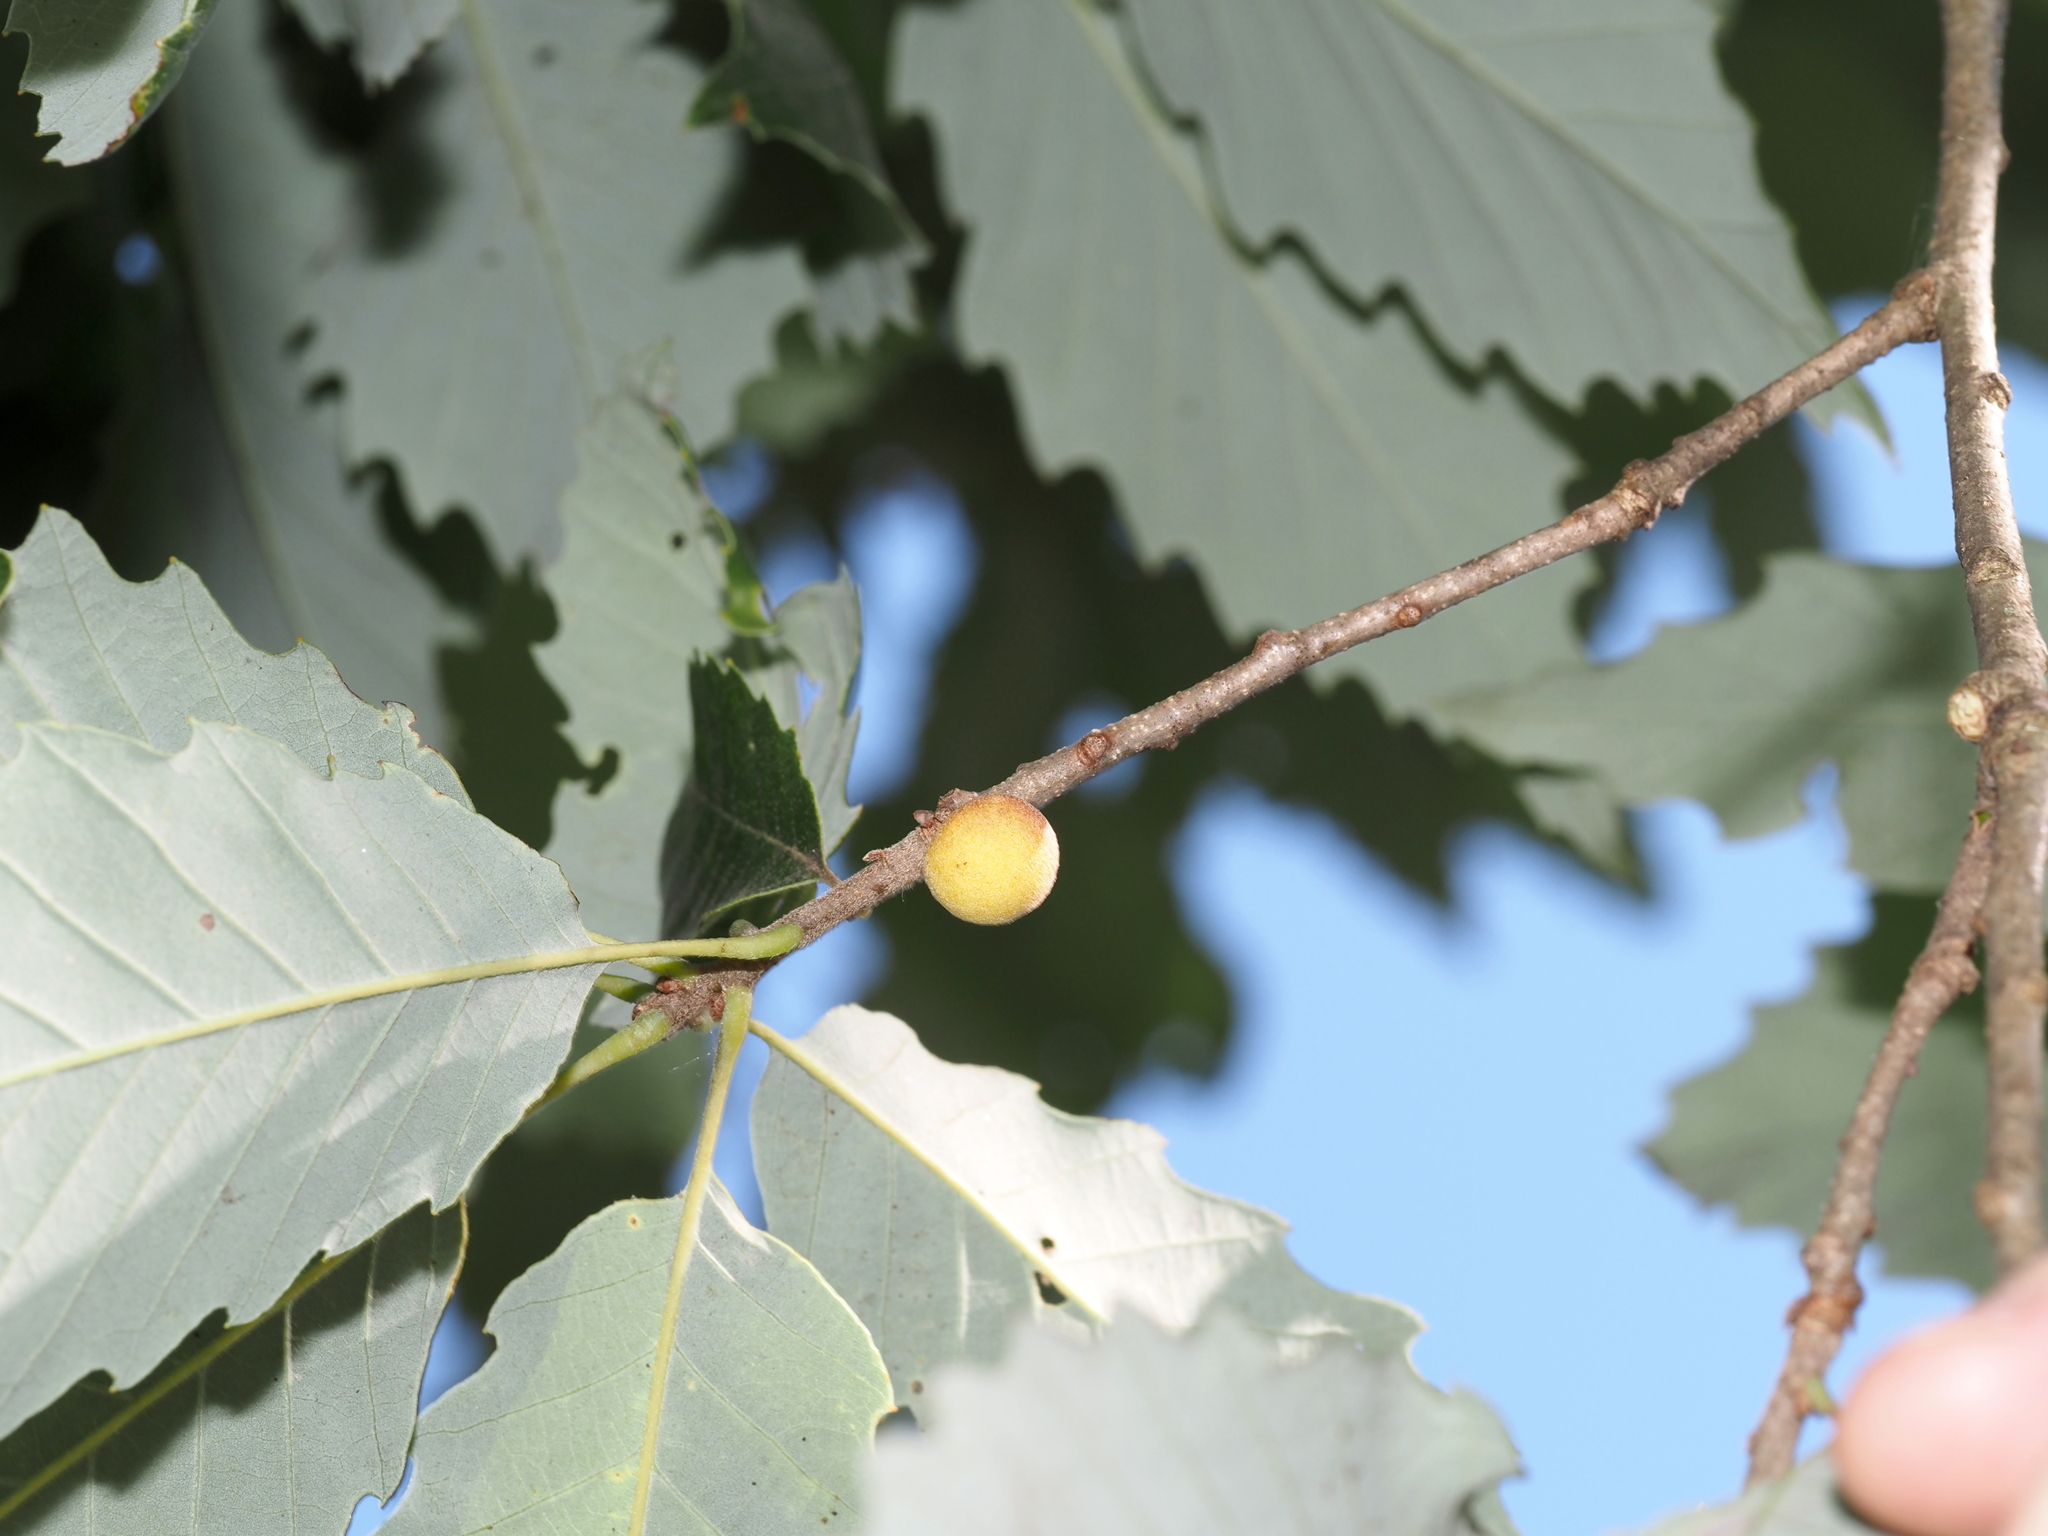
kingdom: Animalia
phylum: Arthropoda
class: Insecta
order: Hymenoptera
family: Cynipidae
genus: Disholcaspis
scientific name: Disholcaspis quercusglobulus
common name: Round bullet gall wasp
